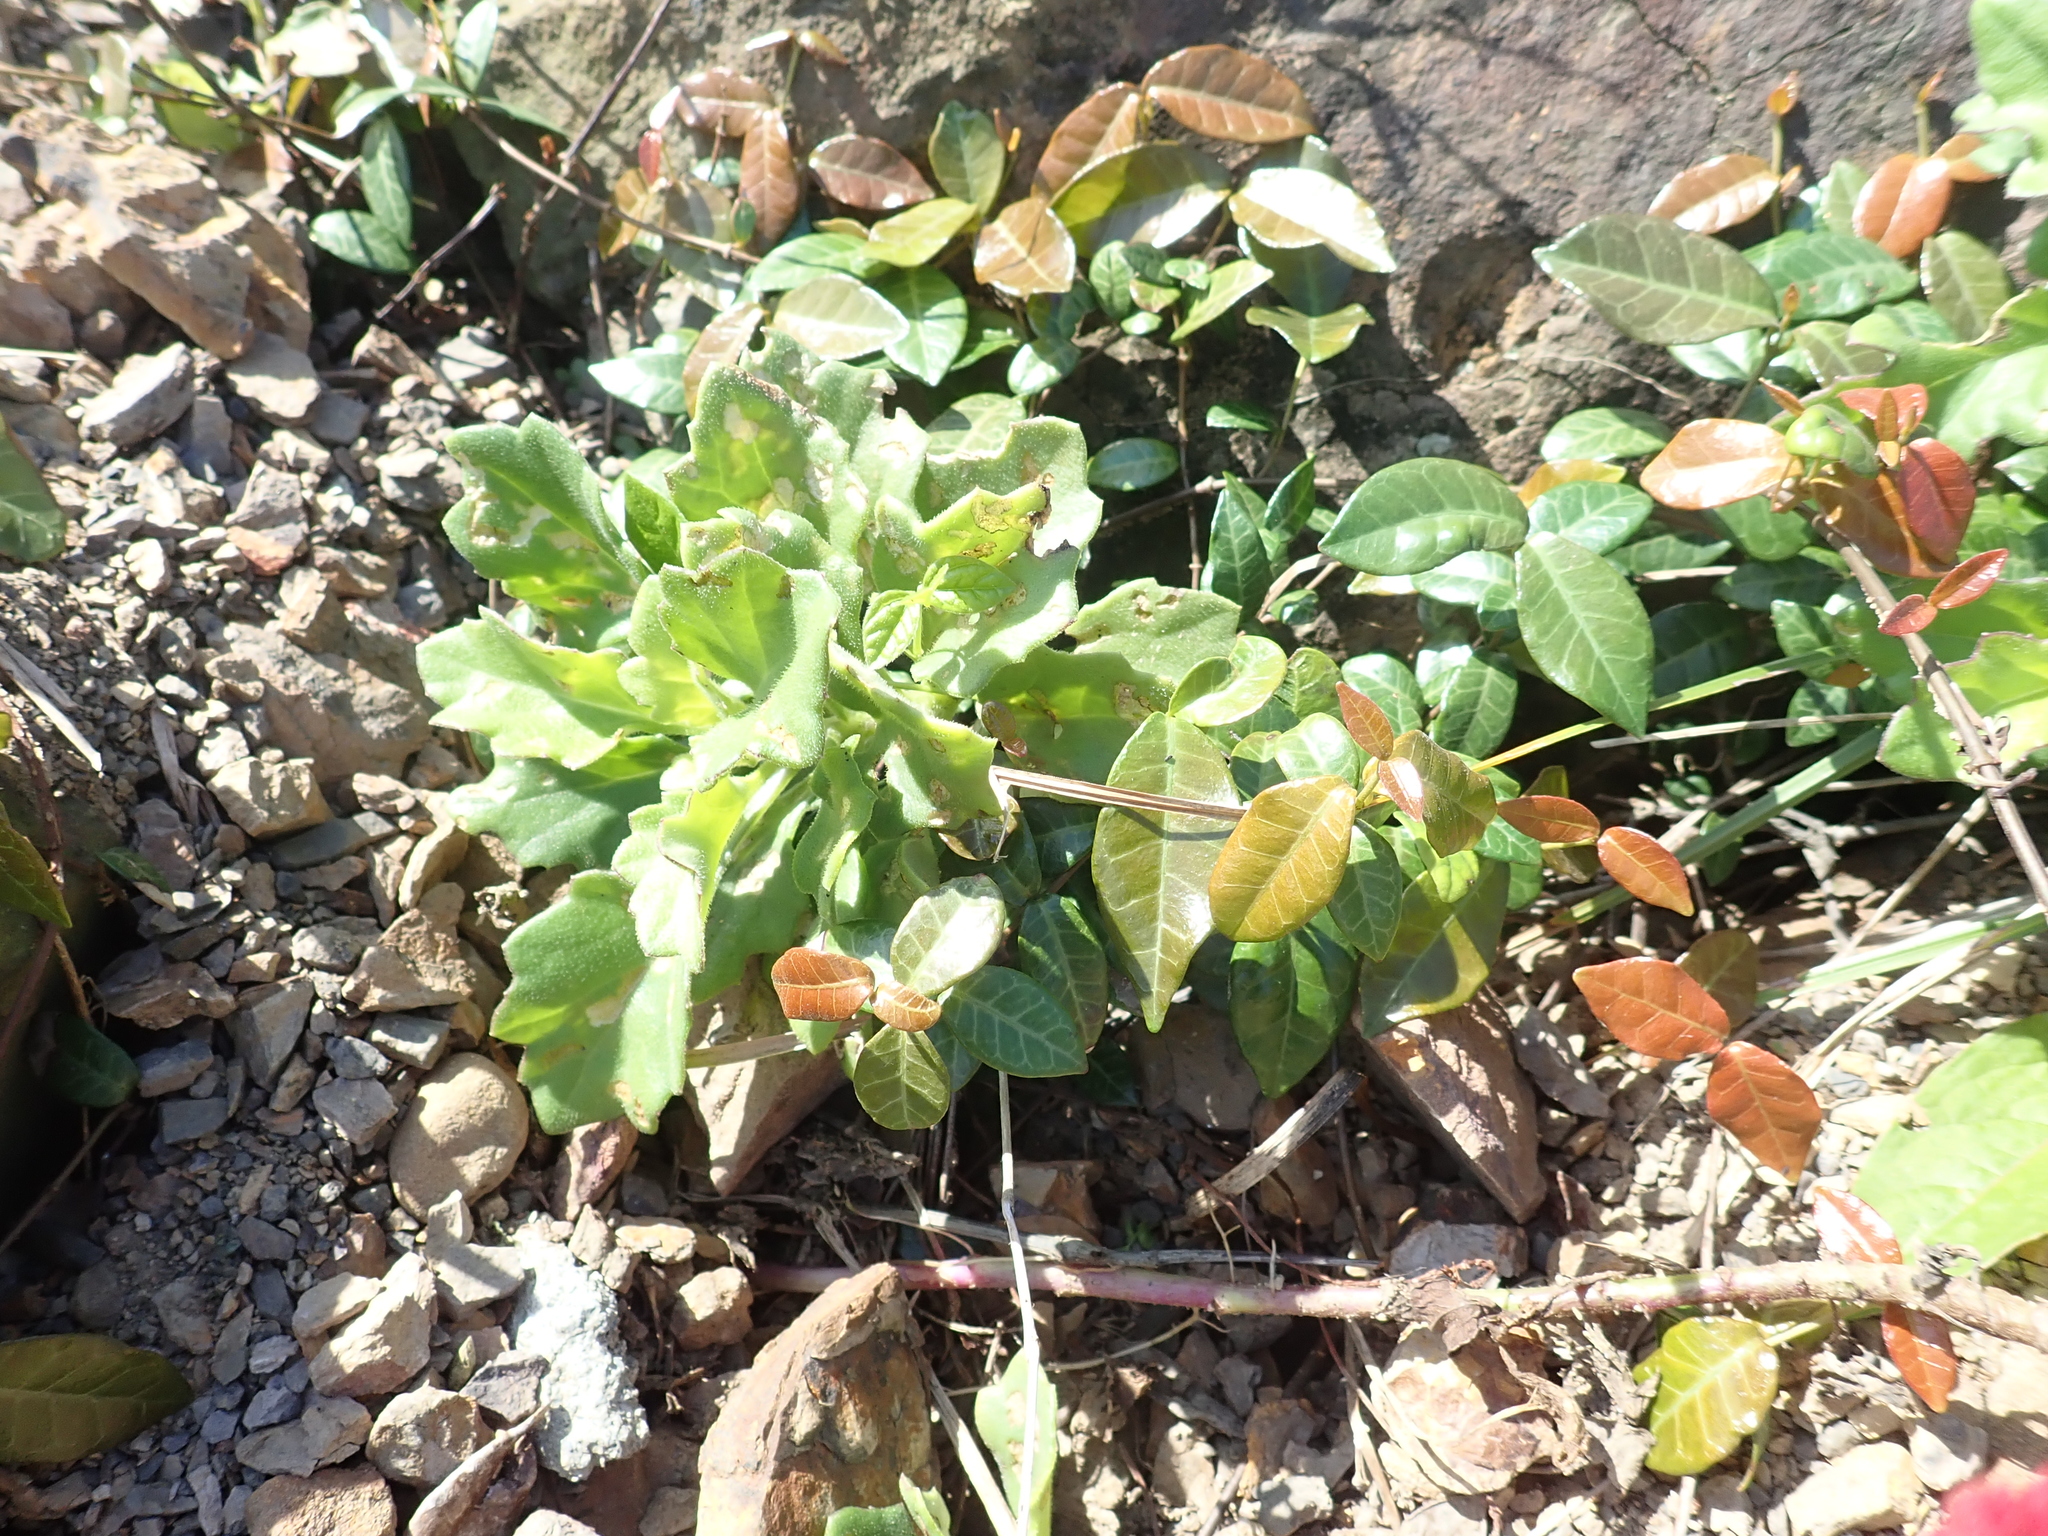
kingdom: Plantae
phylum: Tracheophyta
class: Magnoliopsida
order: Asterales
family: Asteraceae
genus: Gynura
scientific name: Gynura formosana
